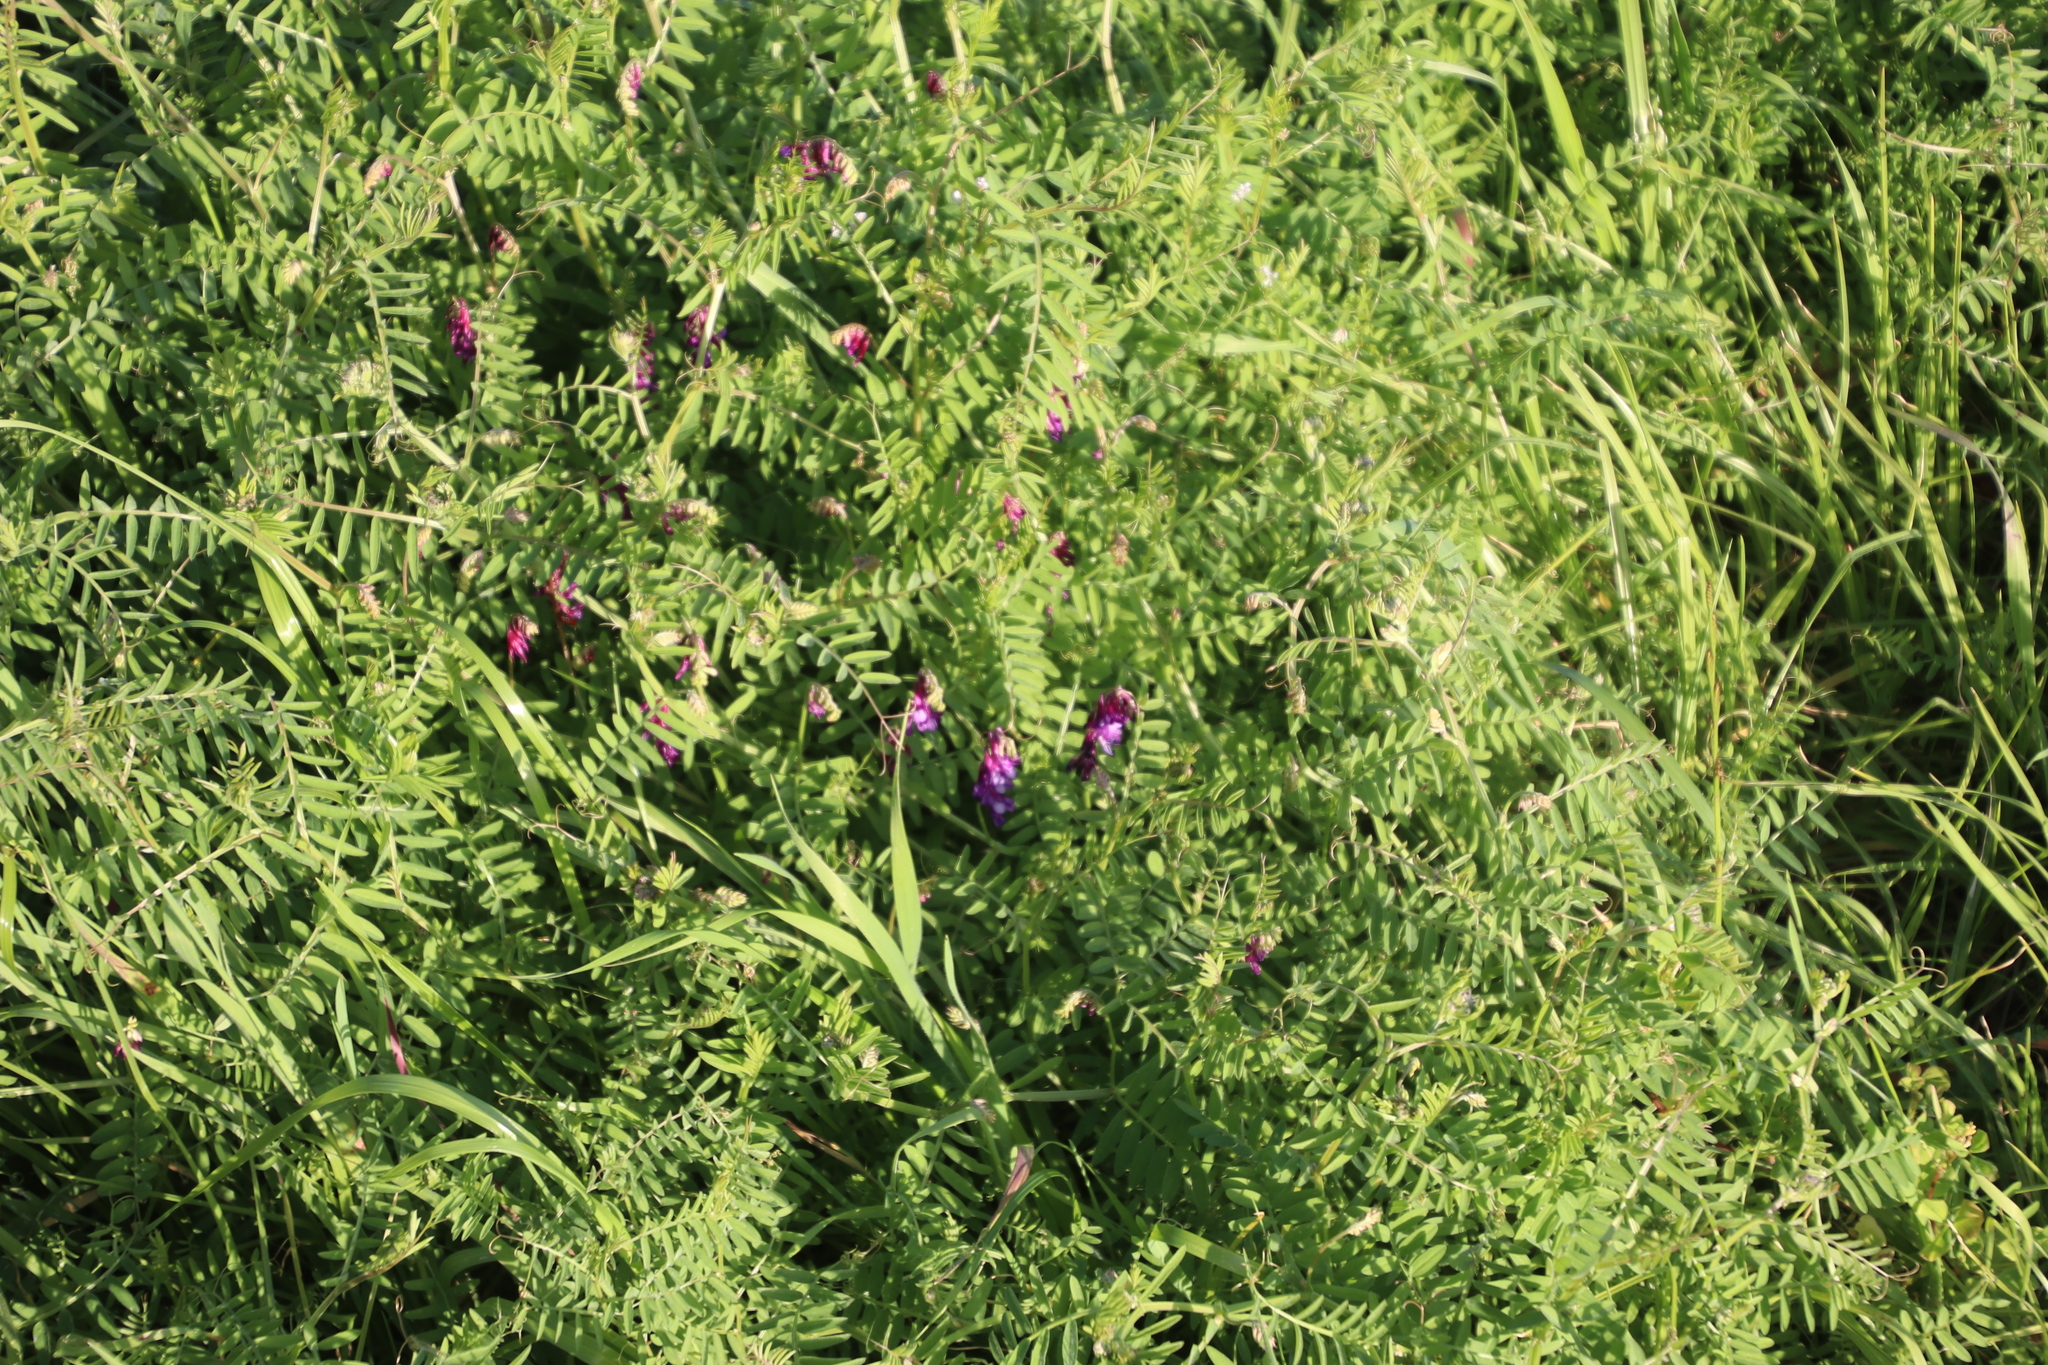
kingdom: Plantae
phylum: Tracheophyta
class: Magnoliopsida
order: Fabales
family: Fabaceae
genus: Vicia
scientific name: Vicia eriocarpa
